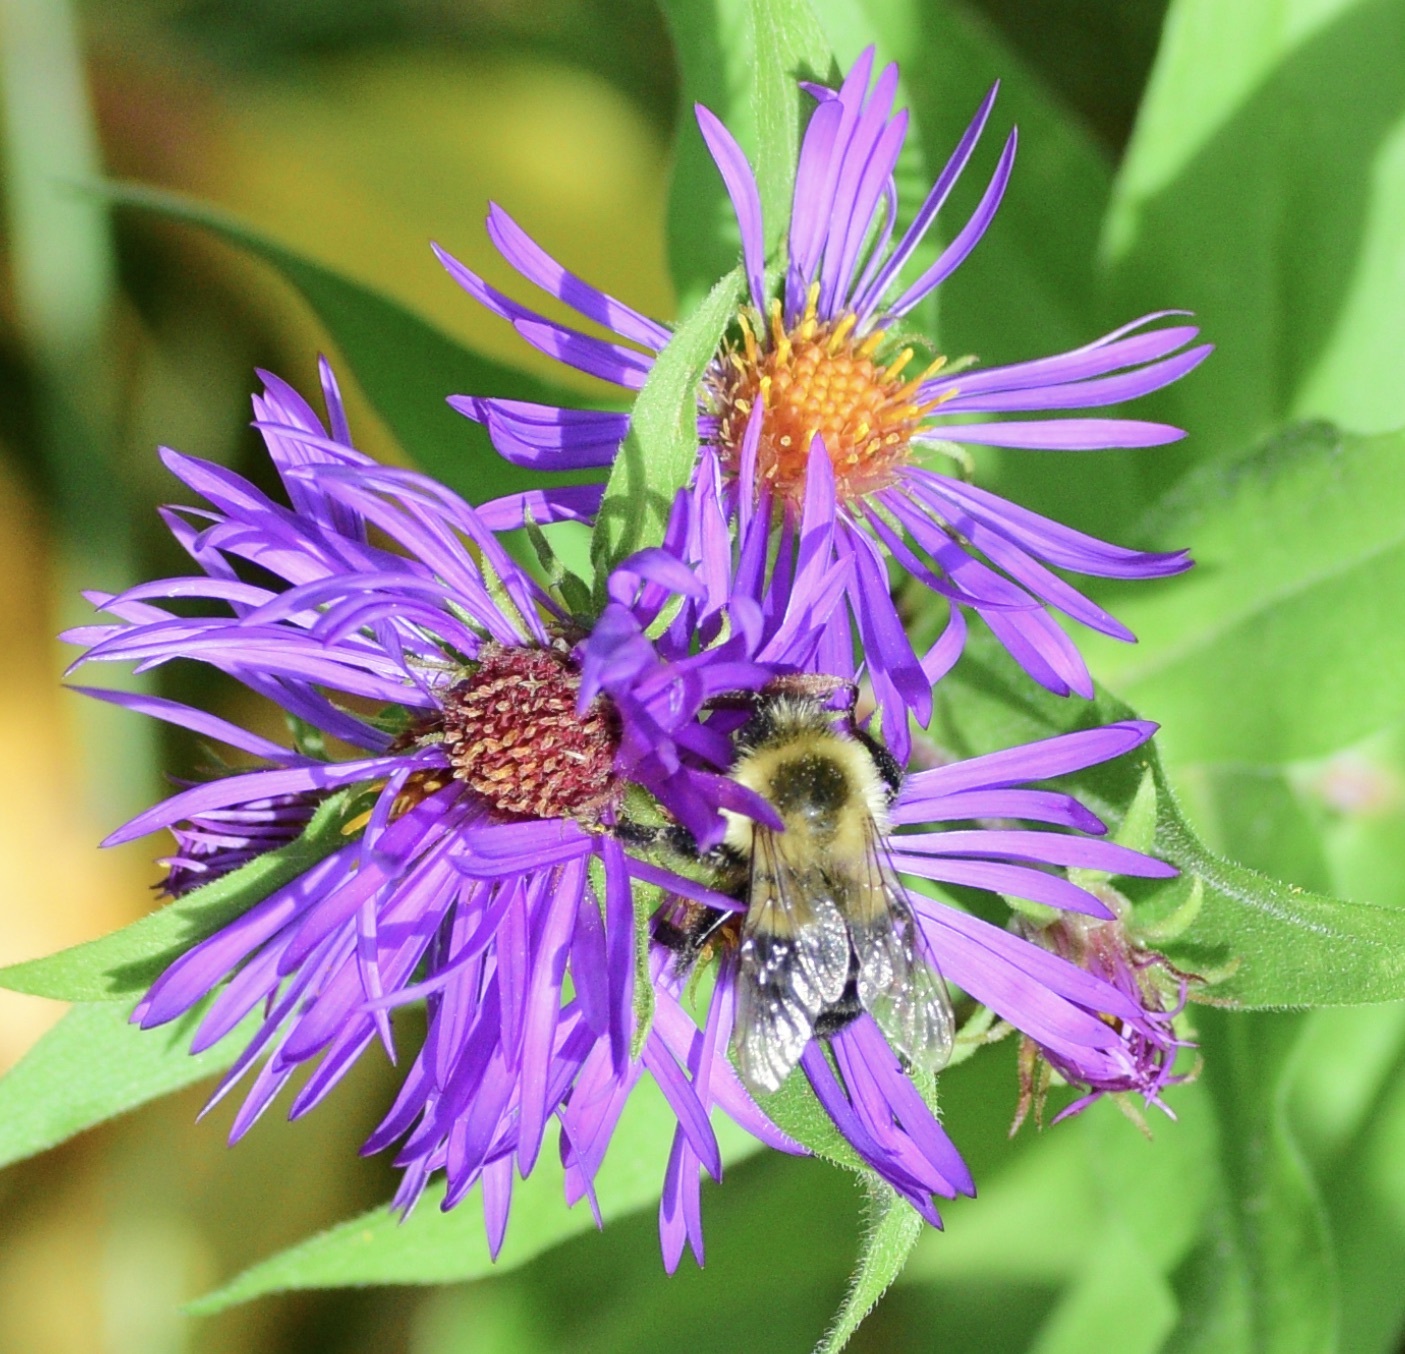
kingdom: Animalia
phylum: Arthropoda
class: Insecta
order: Hymenoptera
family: Apidae
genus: Bombus
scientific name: Bombus impatiens
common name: Common eastern bumble bee
